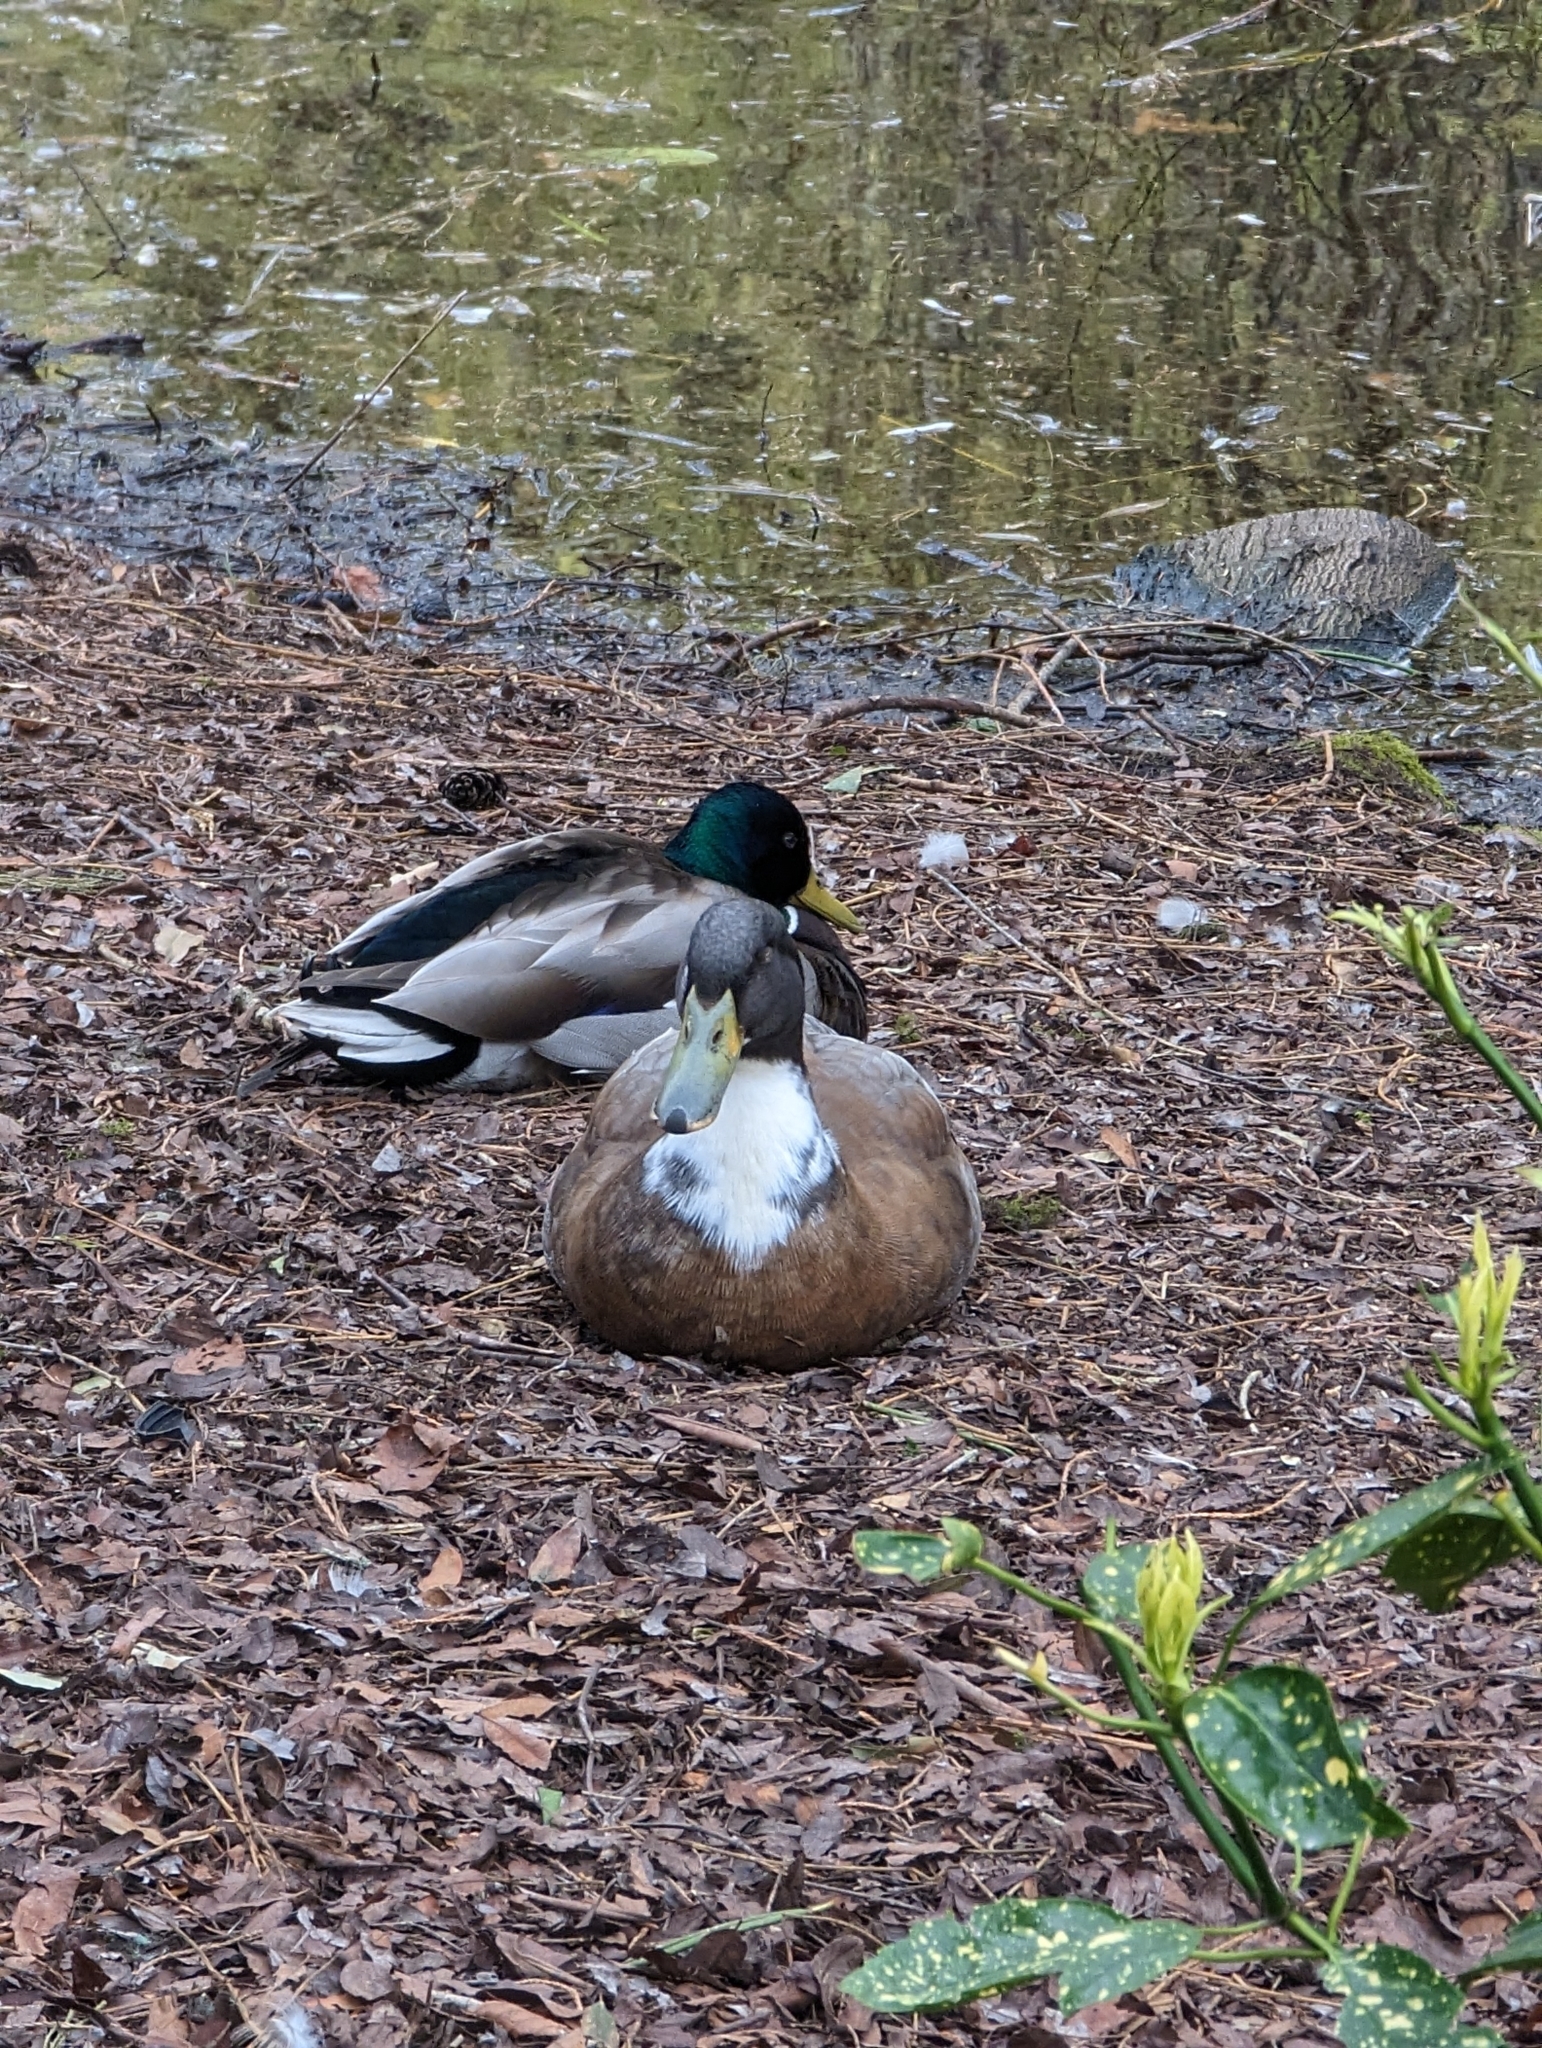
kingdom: Animalia
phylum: Chordata
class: Aves
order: Anseriformes
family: Anatidae
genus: Anas
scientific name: Anas platyrhynchos
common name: Mallard
